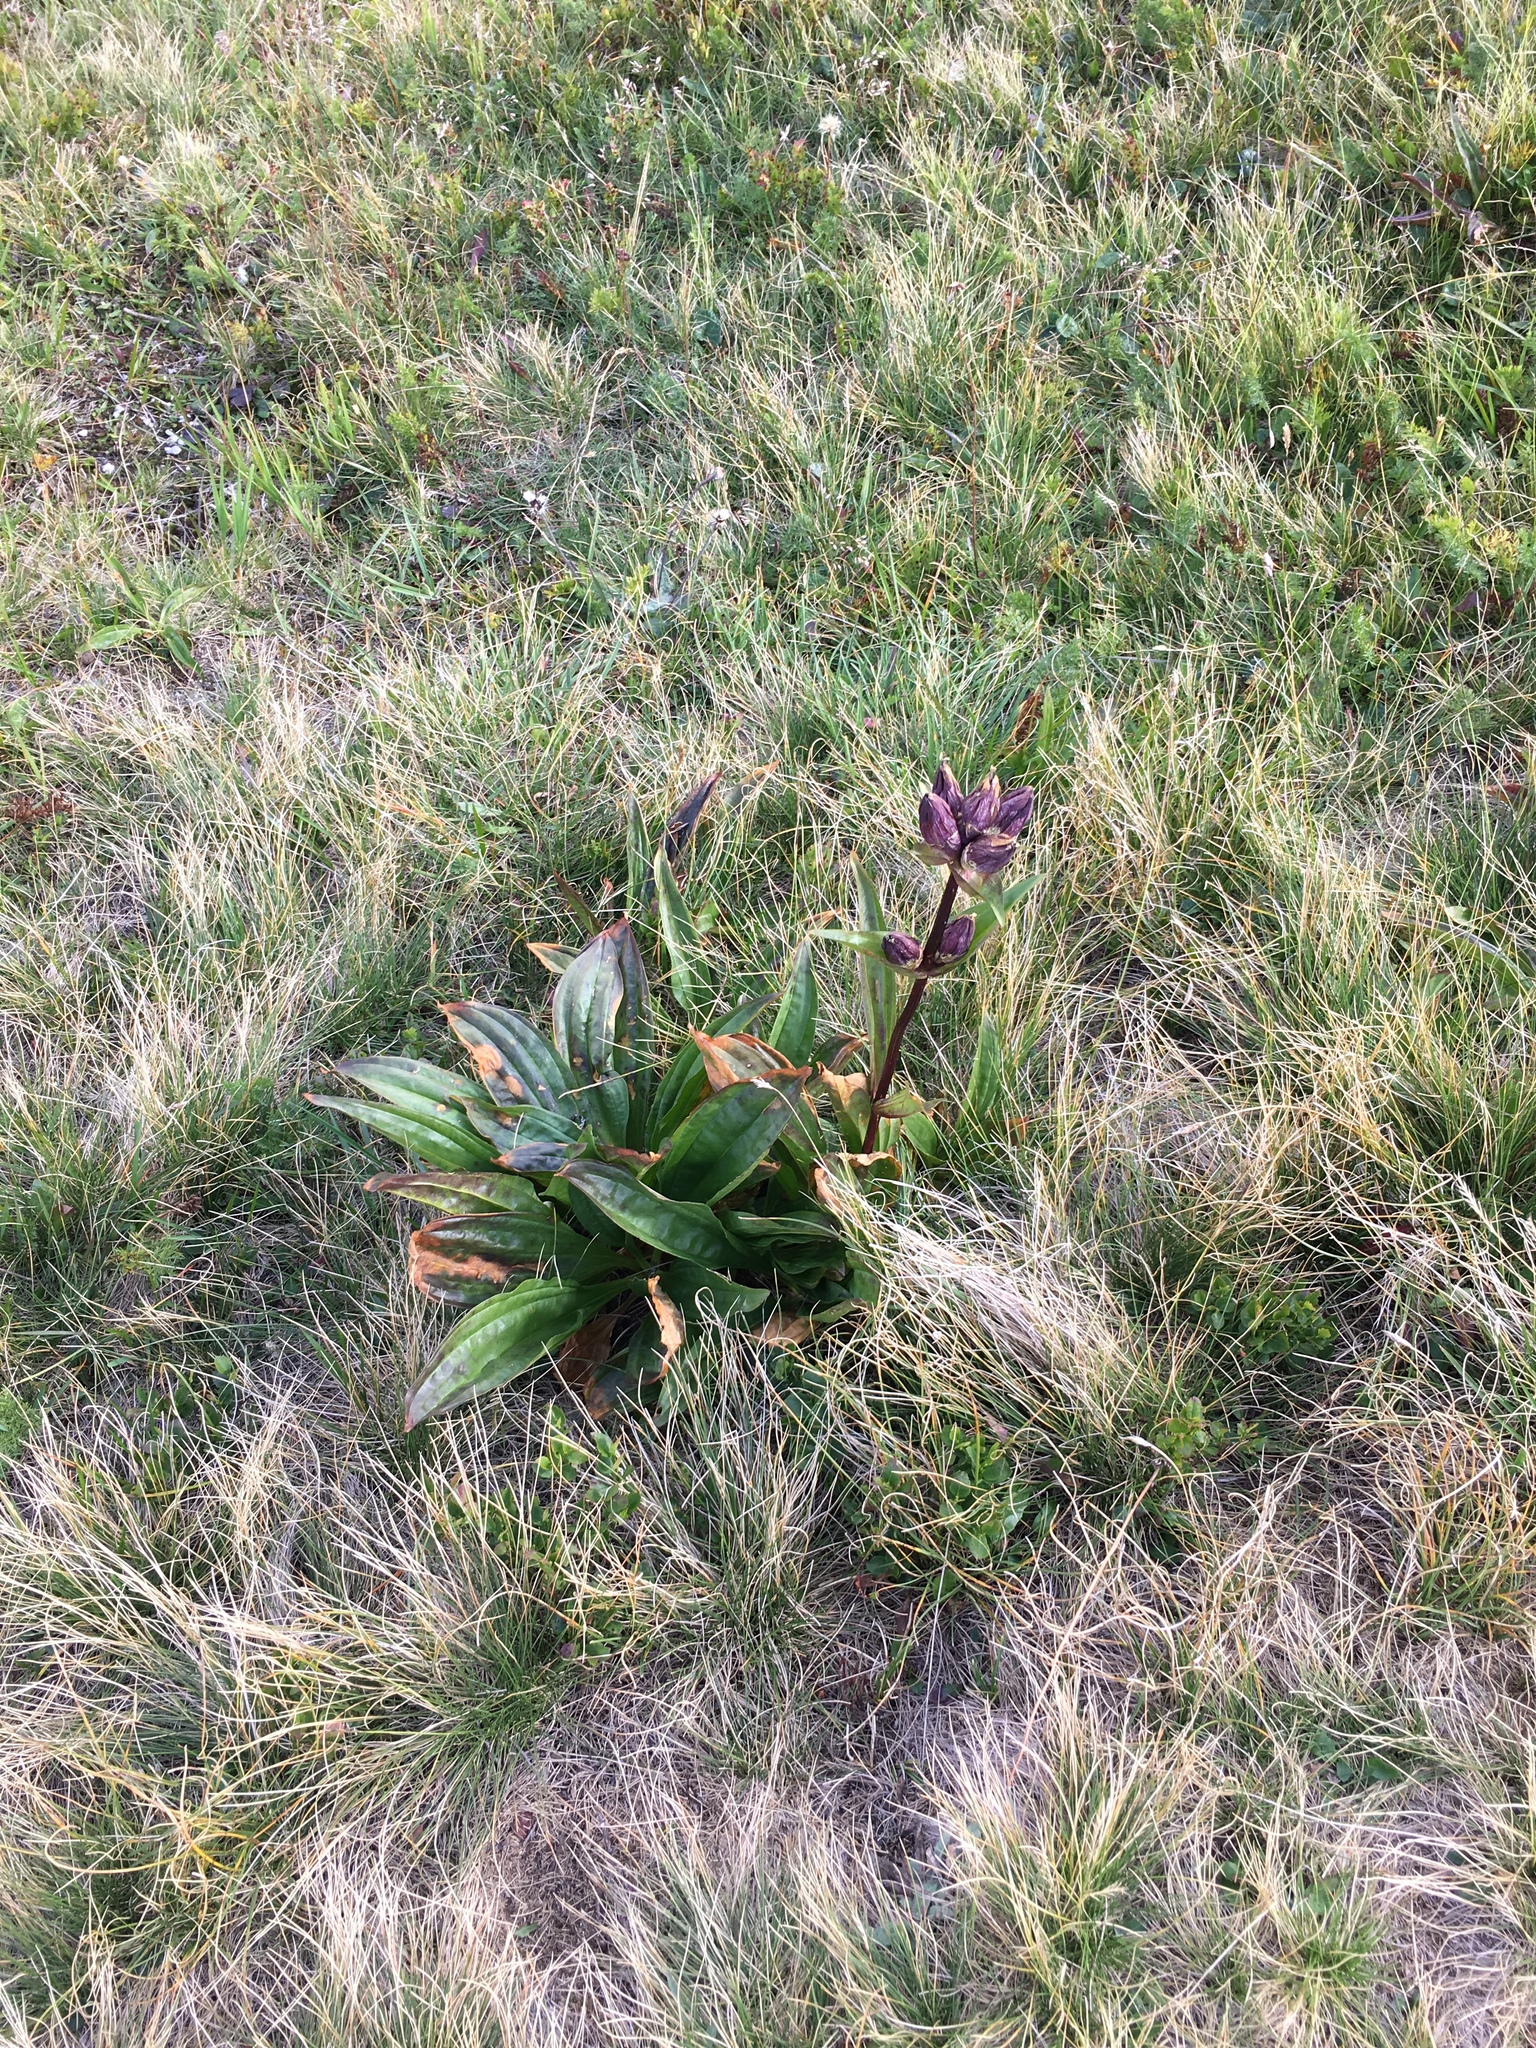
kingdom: Plantae
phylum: Tracheophyta
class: Magnoliopsida
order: Gentianales
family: Gentianaceae
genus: Gentiana
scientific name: Gentiana purpurea
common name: Purple gentian
